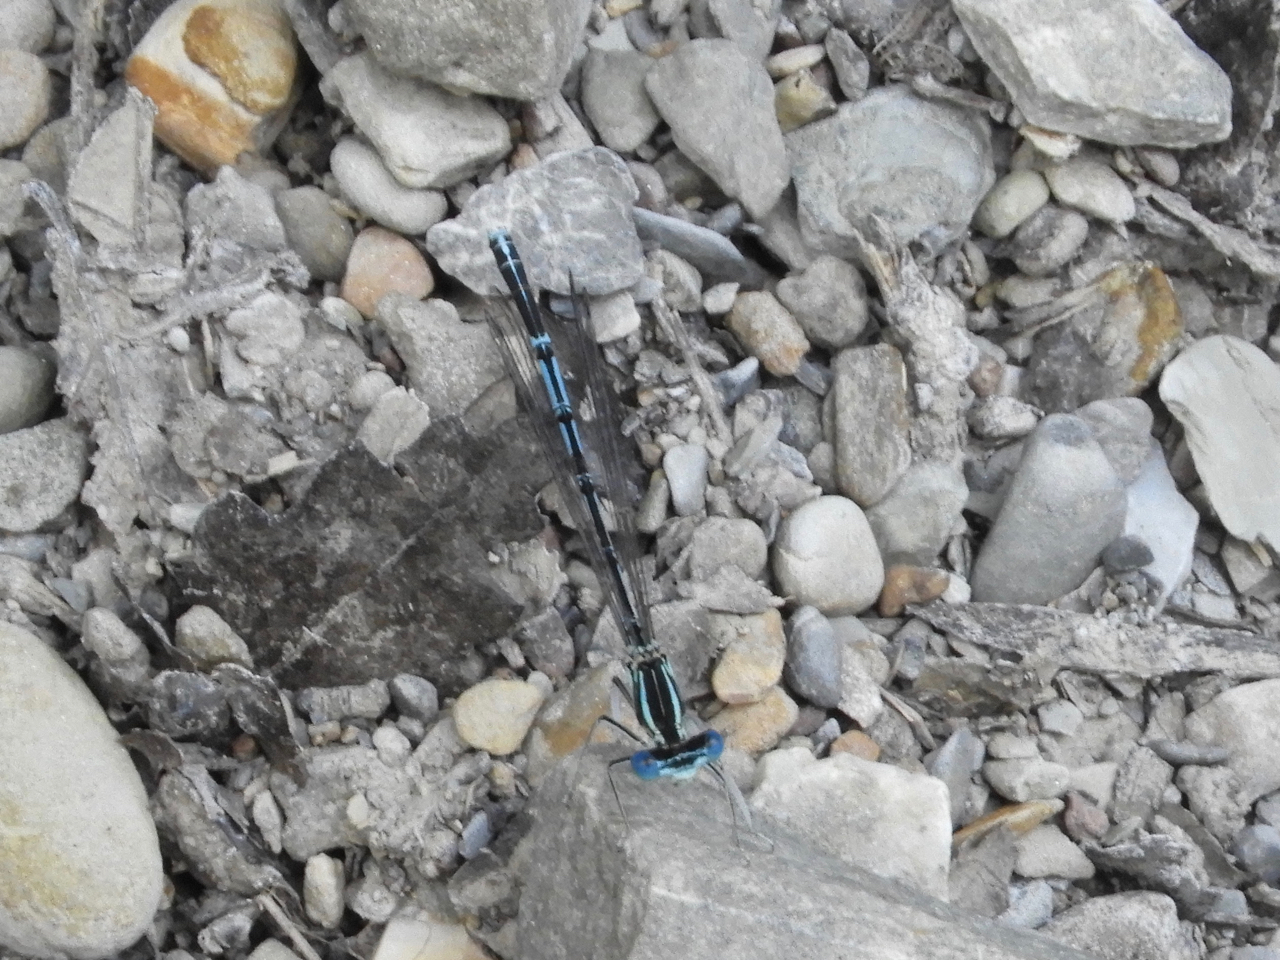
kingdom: Animalia
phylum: Arthropoda
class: Insecta
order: Odonata
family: Platycnemididae
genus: Platycnemis
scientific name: Platycnemis pennipes
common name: White-legged damselfly
